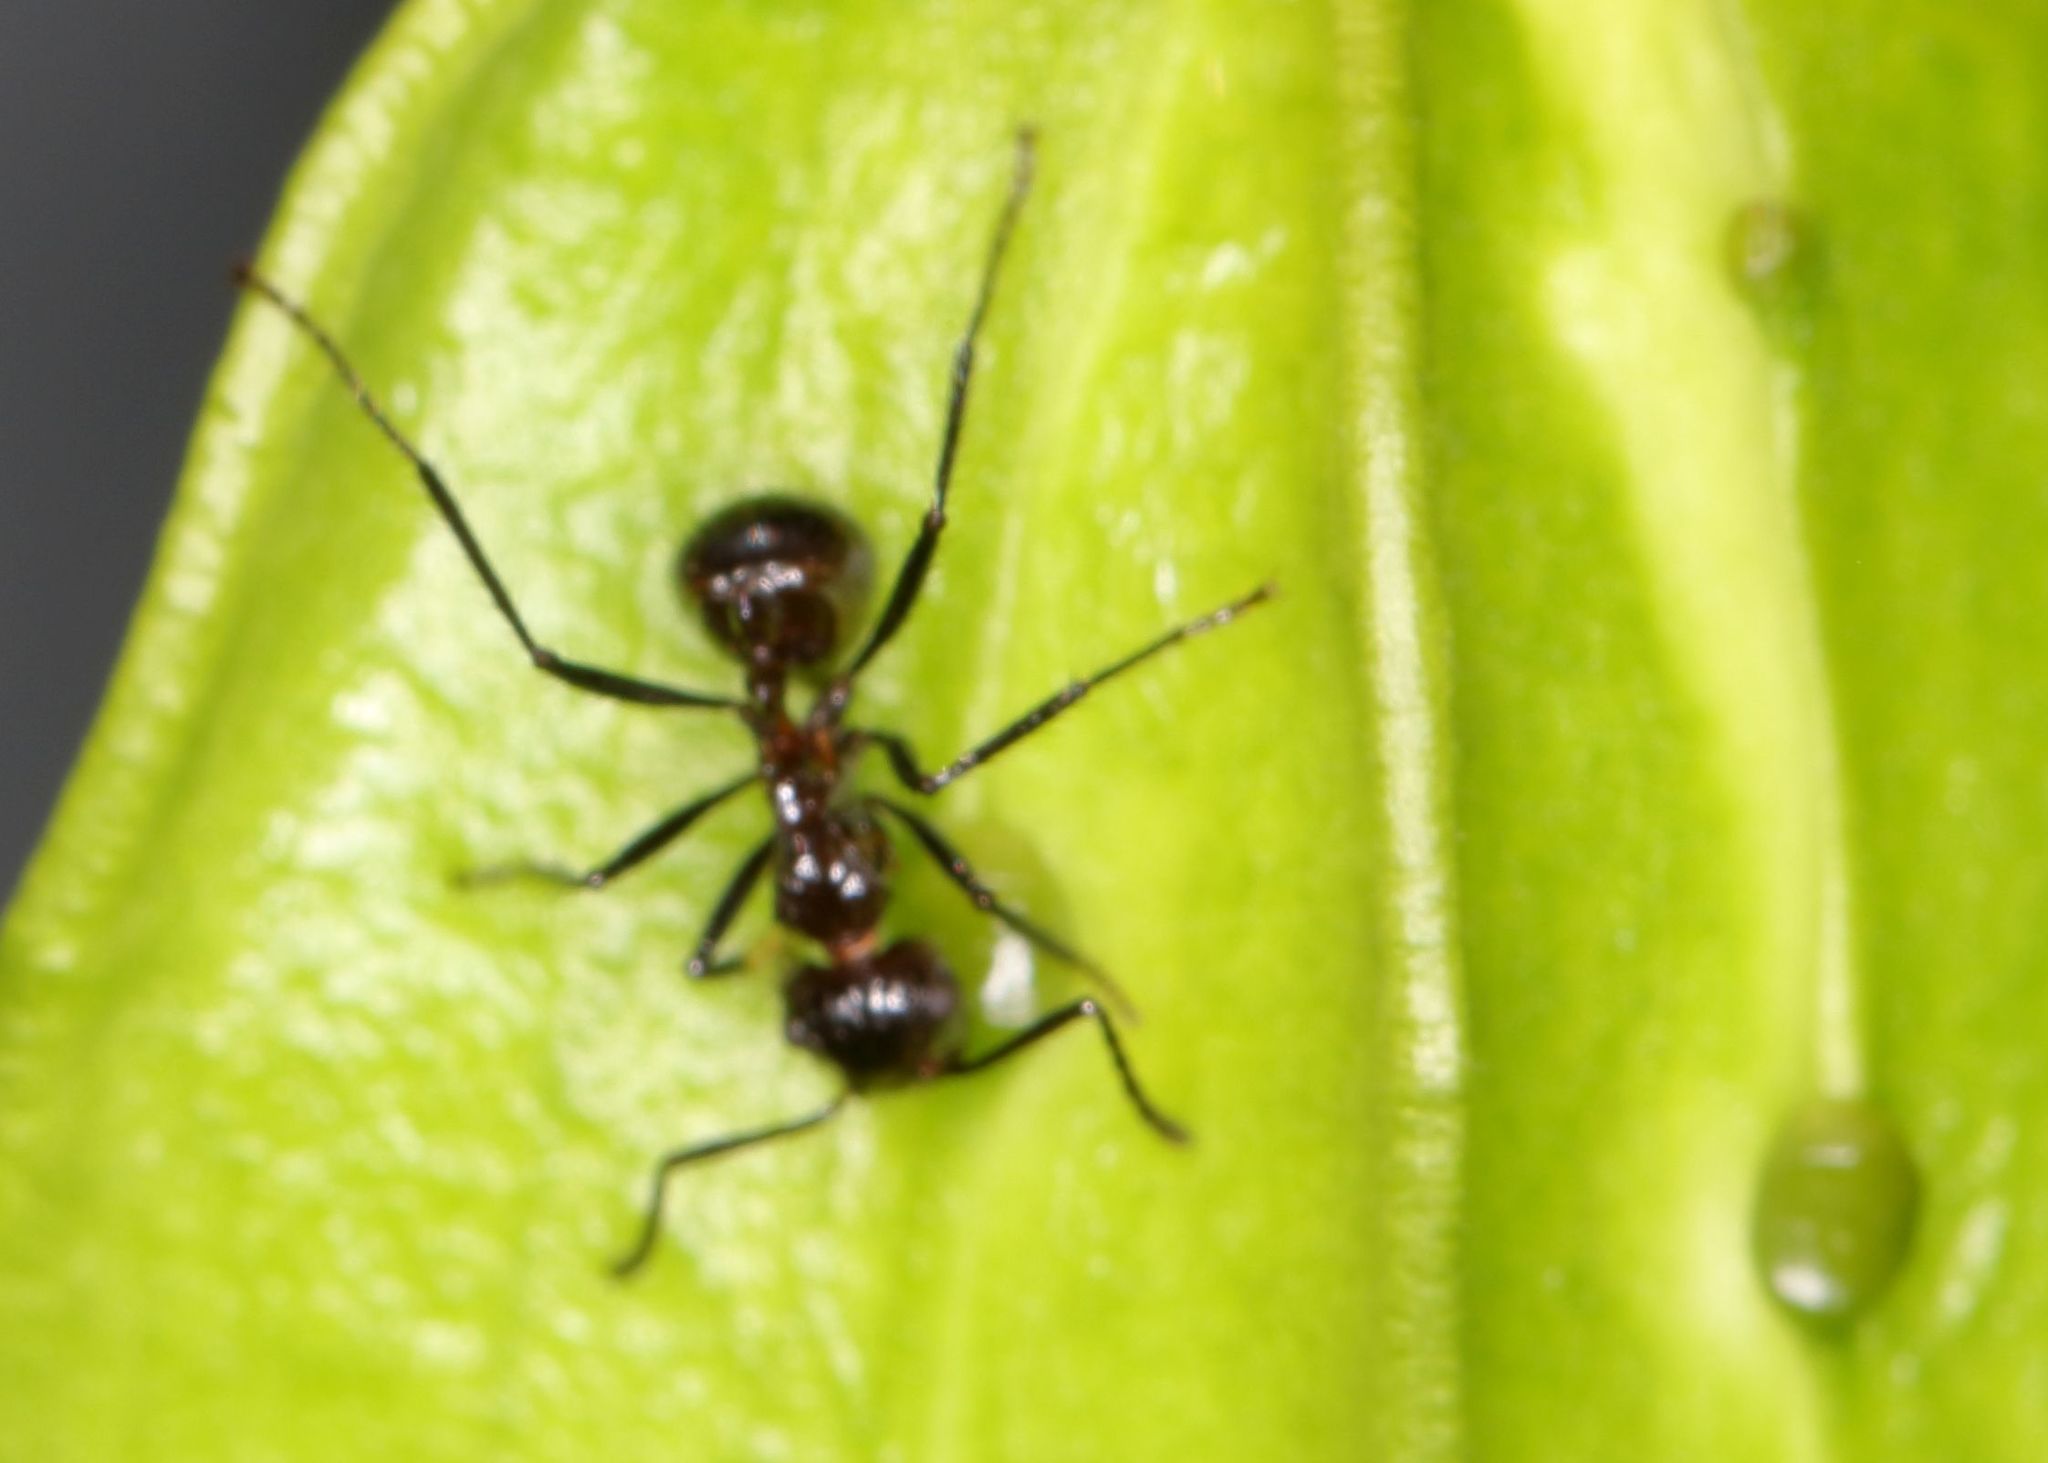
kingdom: Animalia
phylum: Arthropoda
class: Insecta
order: Hymenoptera
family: Formicidae
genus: Myrmicaria
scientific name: Myrmicaria laevior
